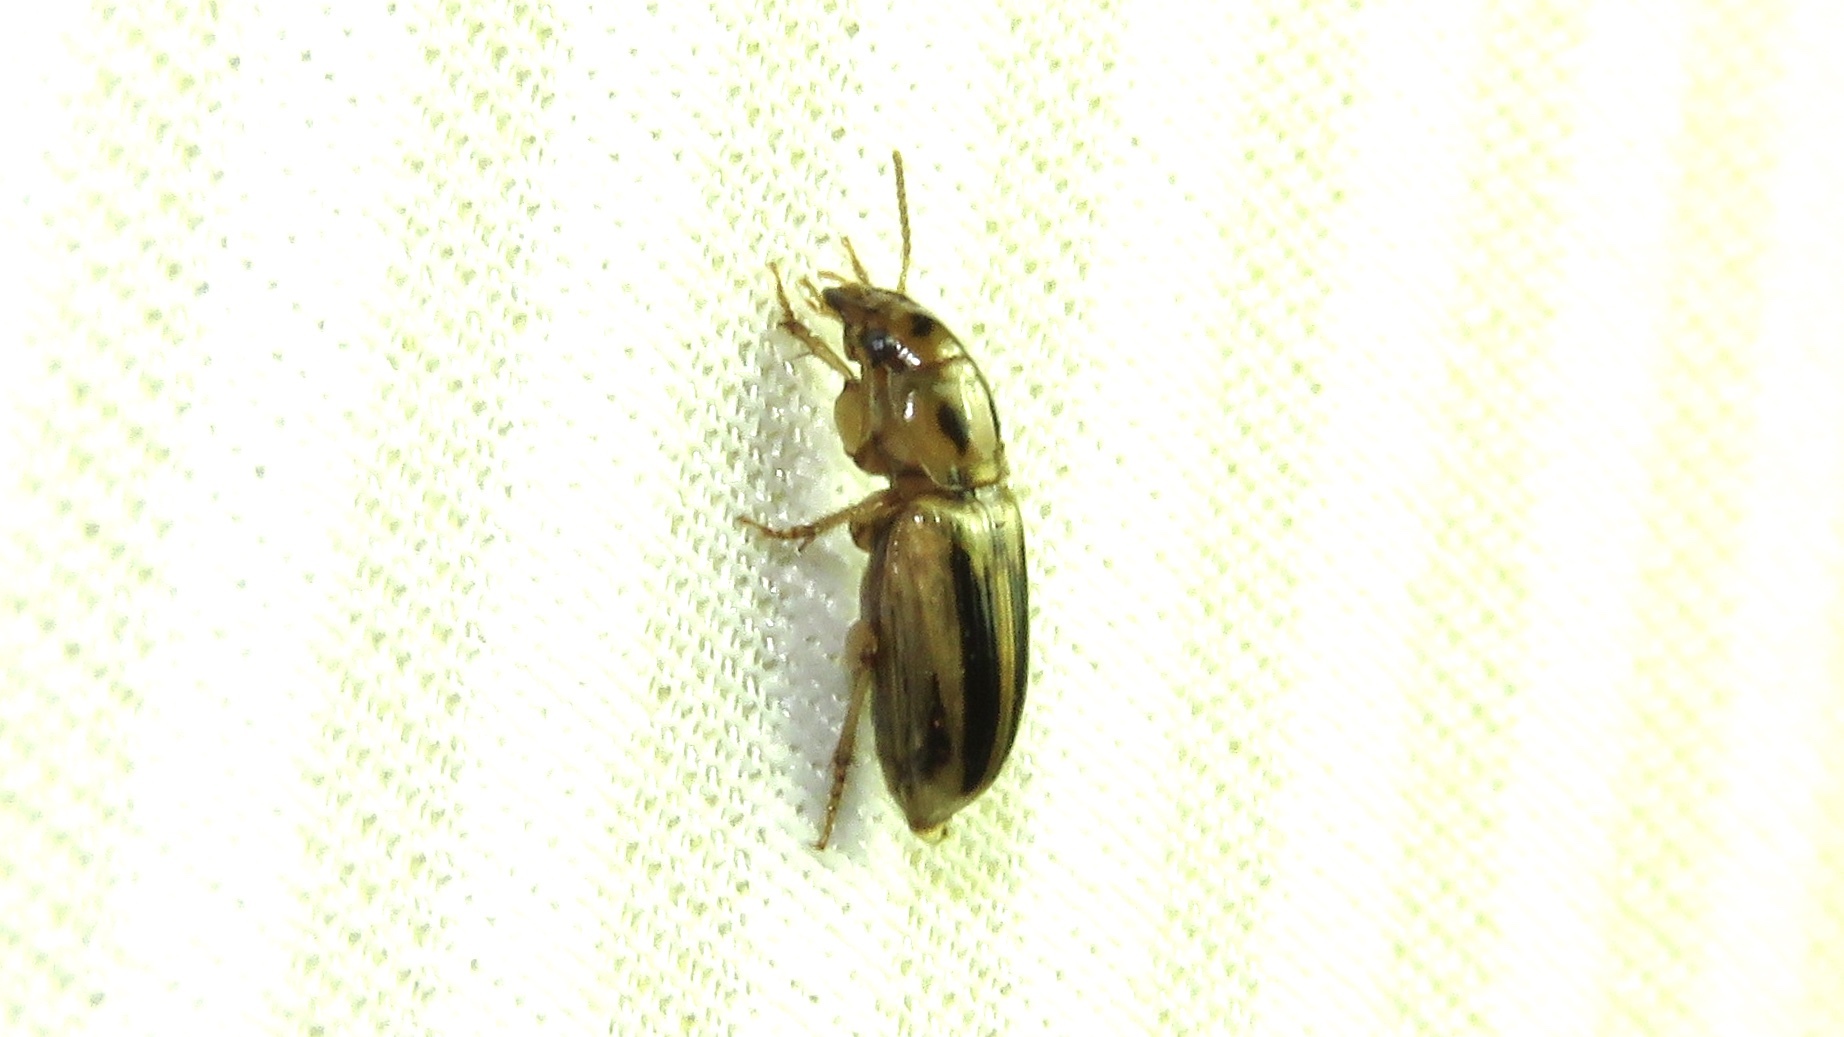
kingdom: Animalia
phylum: Arthropoda
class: Insecta
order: Coleoptera
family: Carabidae
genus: Stenolophus
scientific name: Stenolophus lecontei
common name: Leconte's seedcorn beetle
